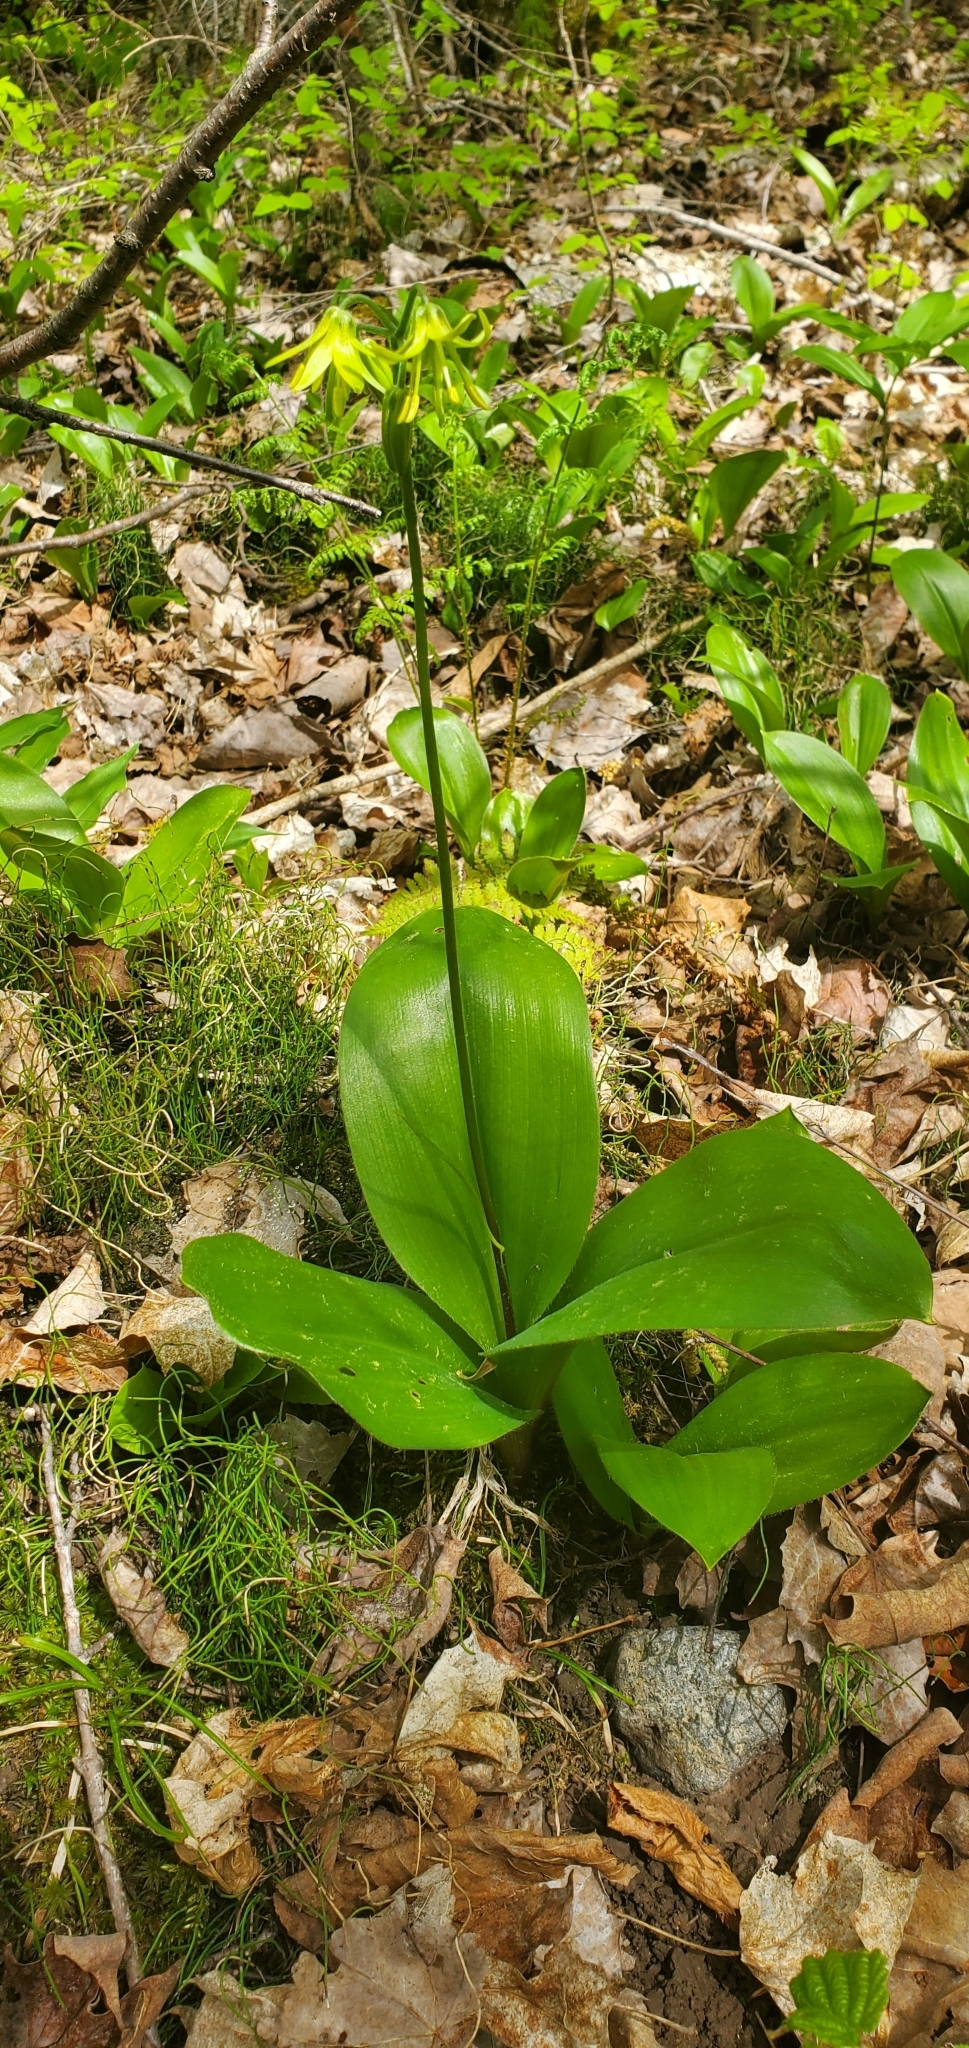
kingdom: Plantae
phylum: Tracheophyta
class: Liliopsida
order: Liliales
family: Liliaceae
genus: Clintonia
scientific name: Clintonia borealis
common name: Yellow clintonia
